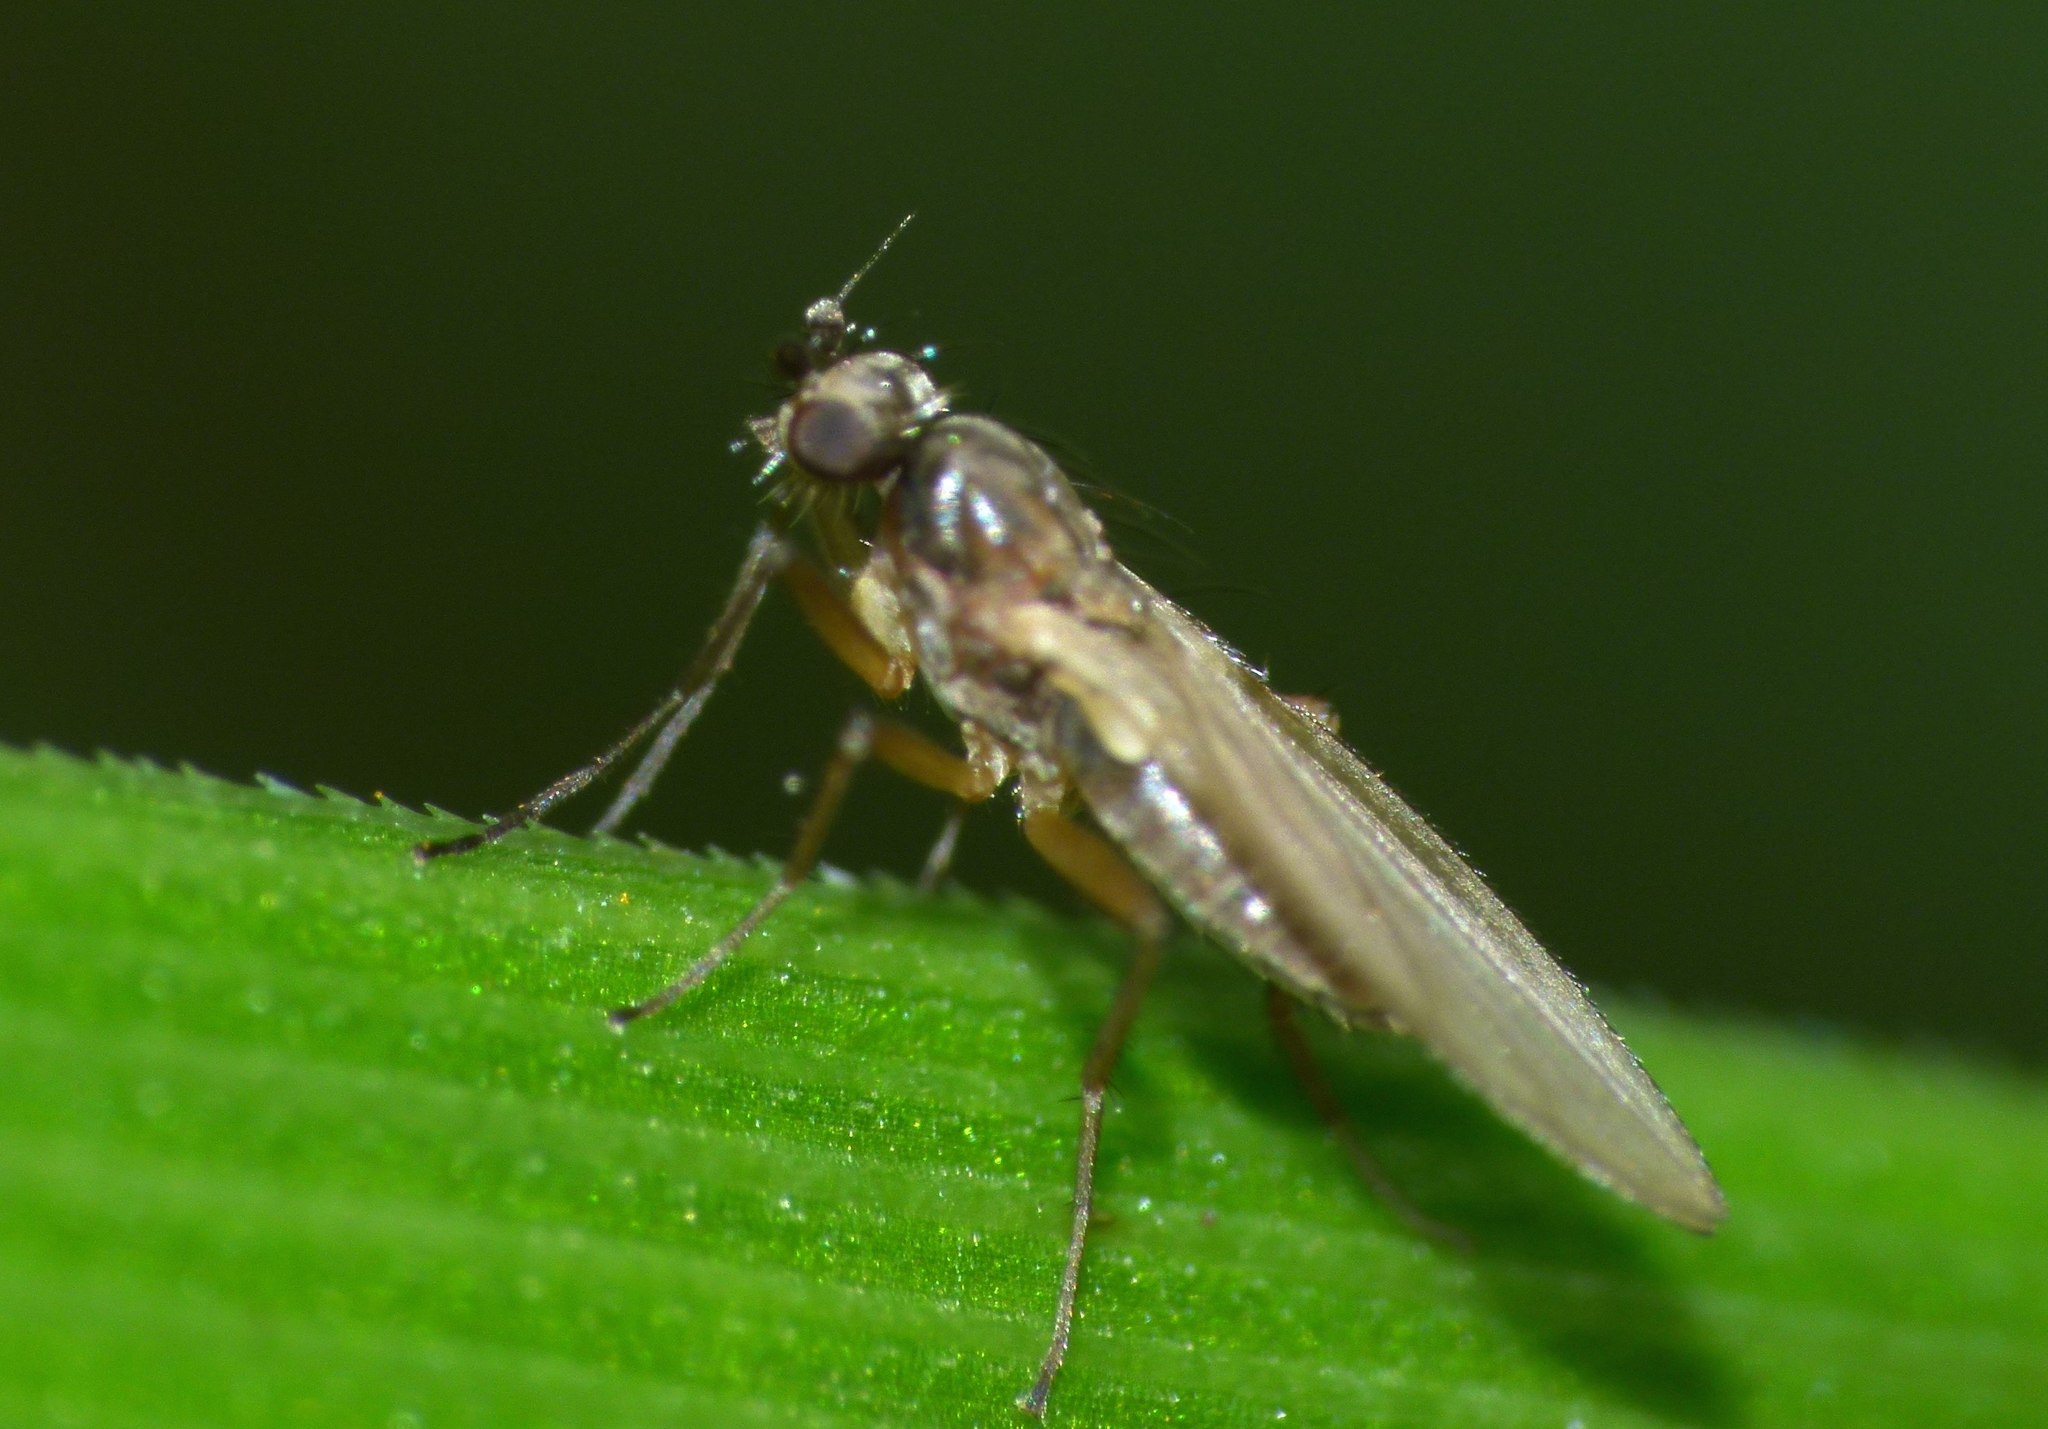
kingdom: Animalia
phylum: Arthropoda
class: Insecta
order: Diptera
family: Lonchopteridae
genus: Lonchoptera
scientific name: Lonchoptera bifurcata
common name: Spear-winged fly
